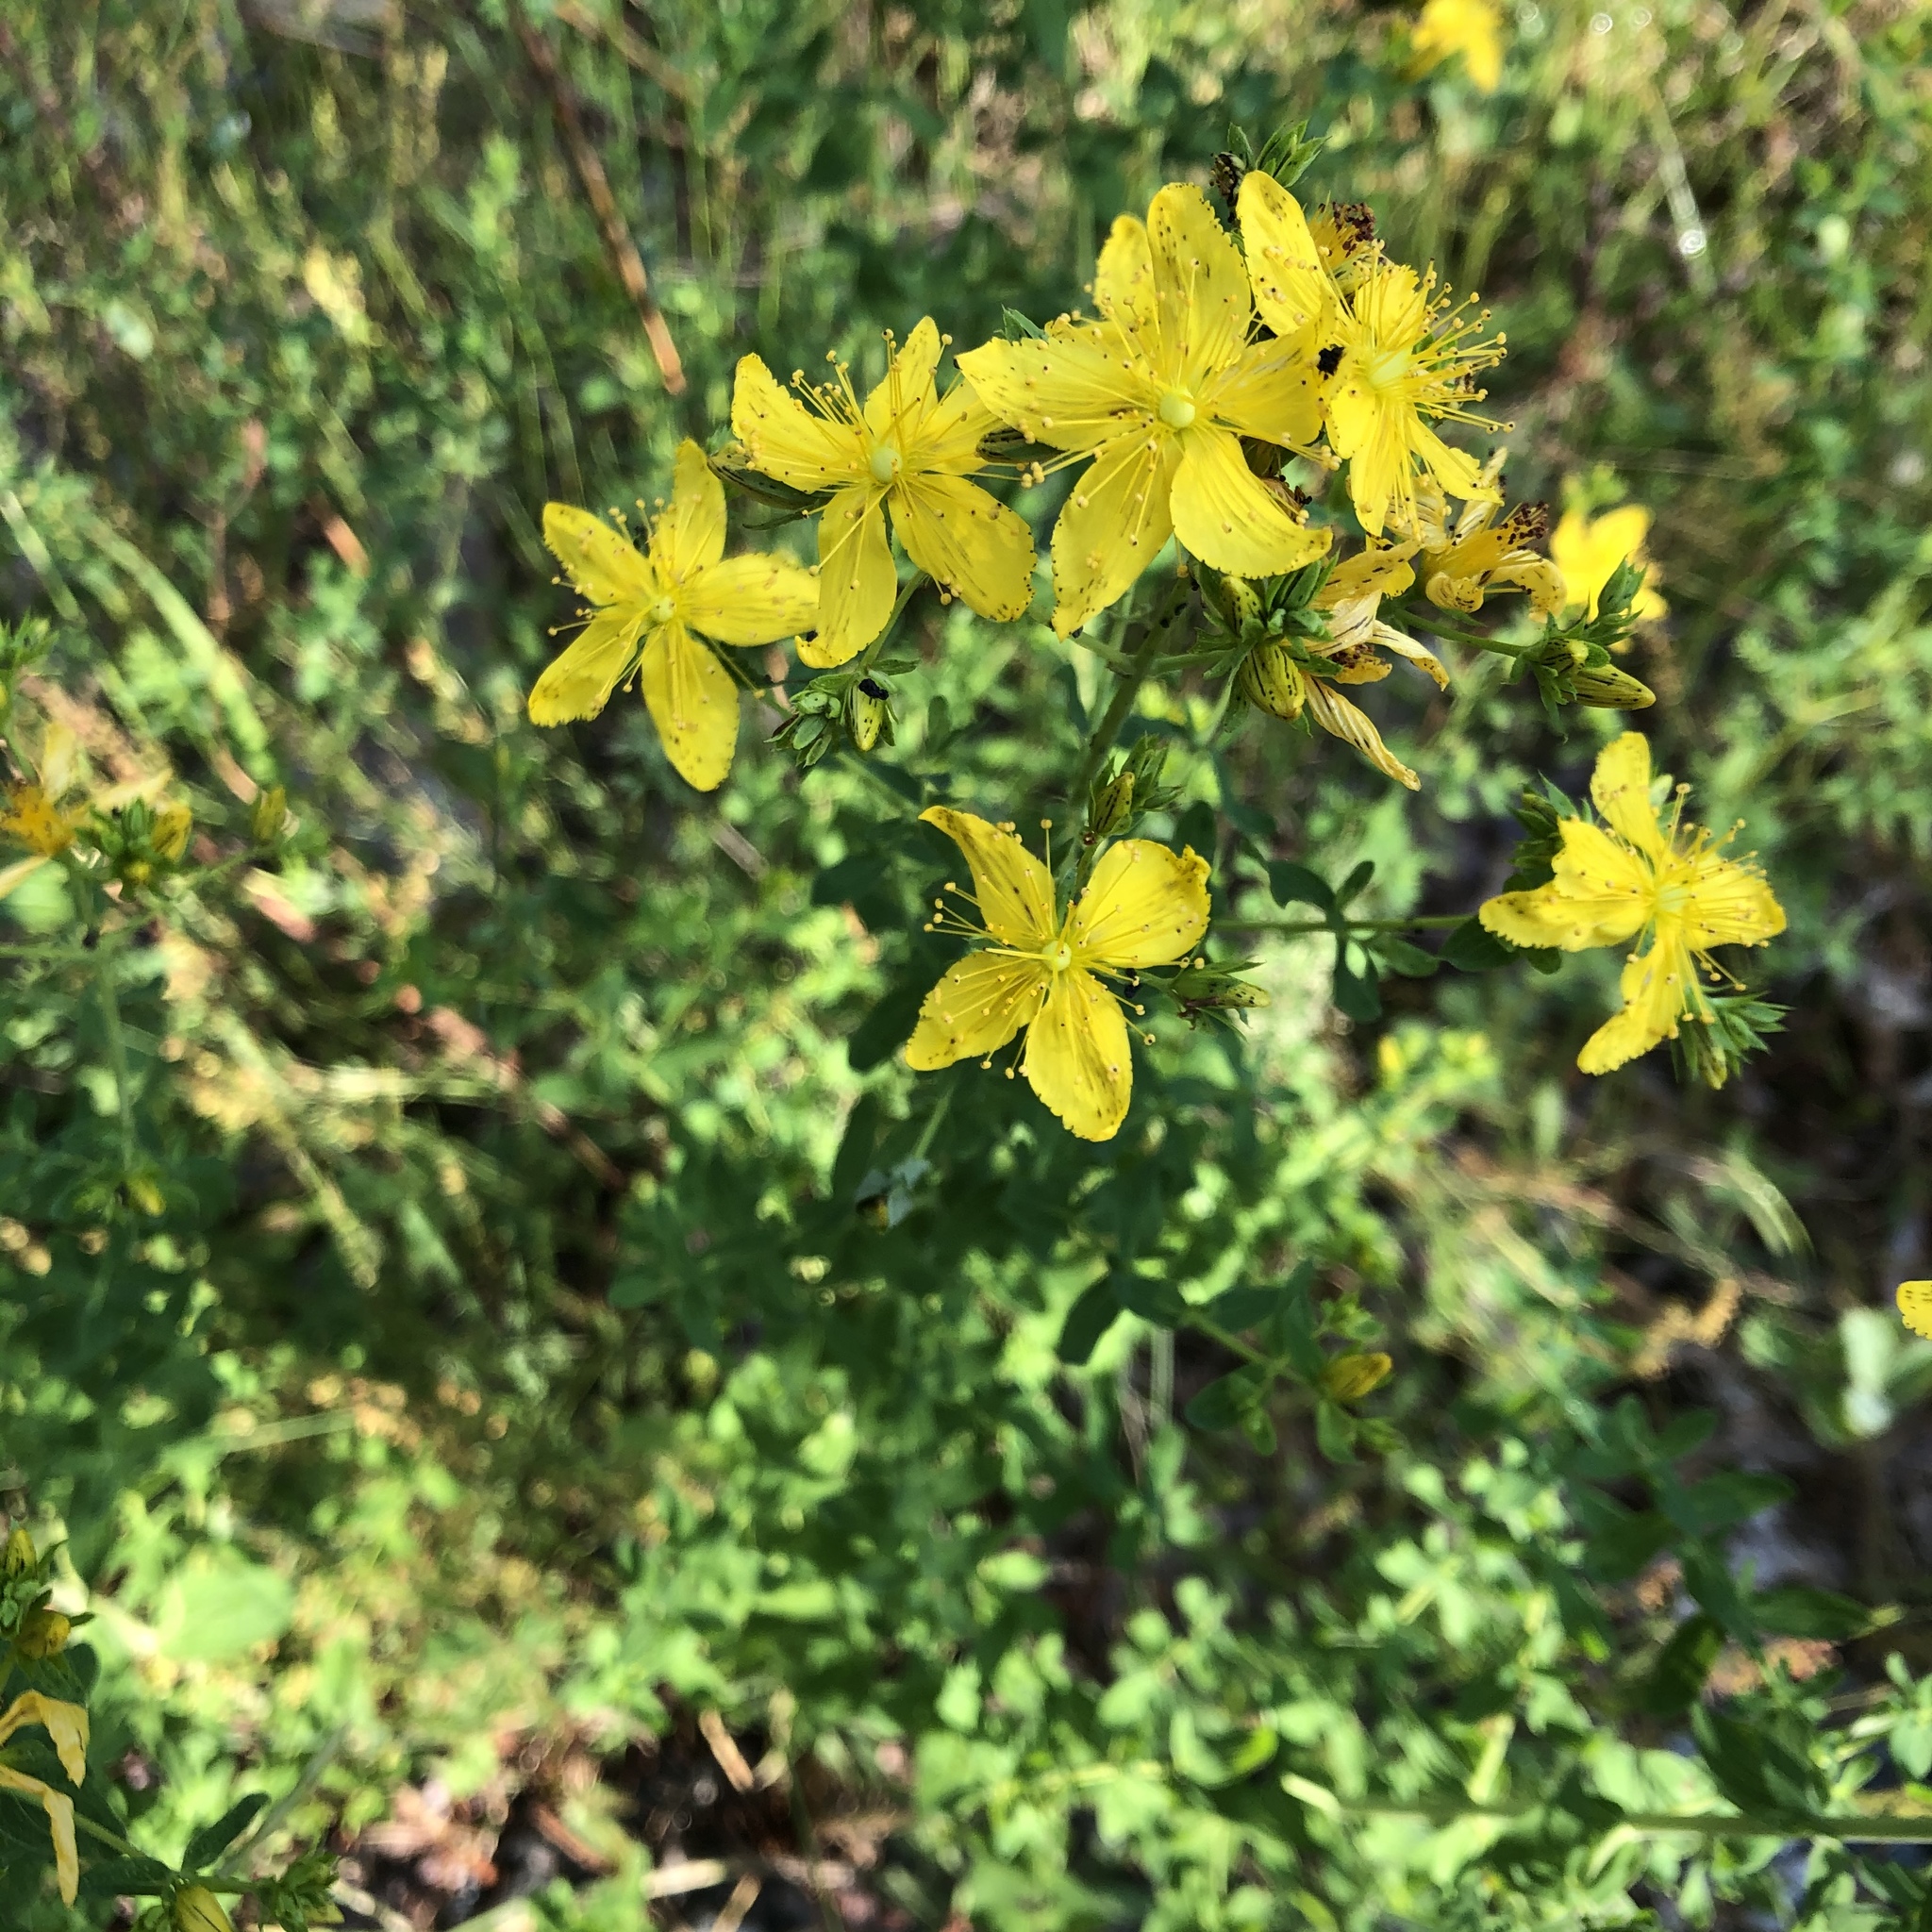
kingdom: Plantae
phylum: Tracheophyta
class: Magnoliopsida
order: Malpighiales
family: Hypericaceae
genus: Hypericum
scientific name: Hypericum perforatum
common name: Common st. johnswort
